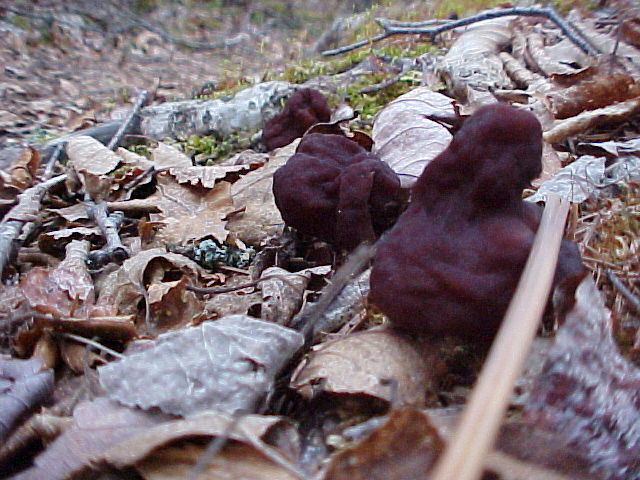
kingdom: Fungi
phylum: Ascomycota
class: Pezizomycetes
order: Pezizales
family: Discinaceae
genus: Gyromitra
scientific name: Gyromitra esculenta
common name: False morel
